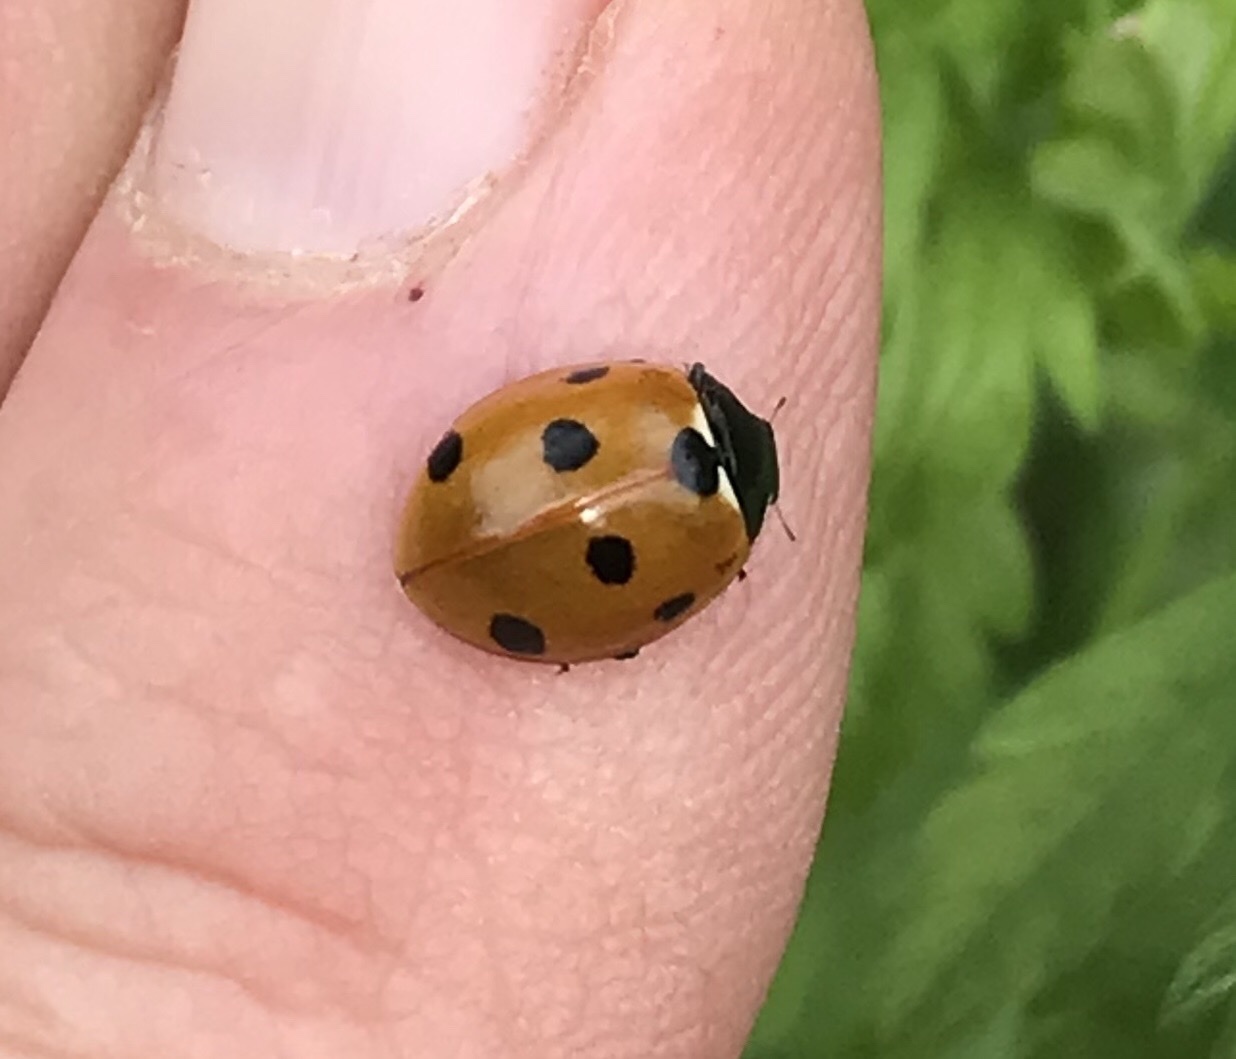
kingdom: Animalia
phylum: Arthropoda
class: Insecta
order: Coleoptera
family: Coccinellidae
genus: Coccinella
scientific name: Coccinella septempunctata
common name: Sevenspotted lady beetle
